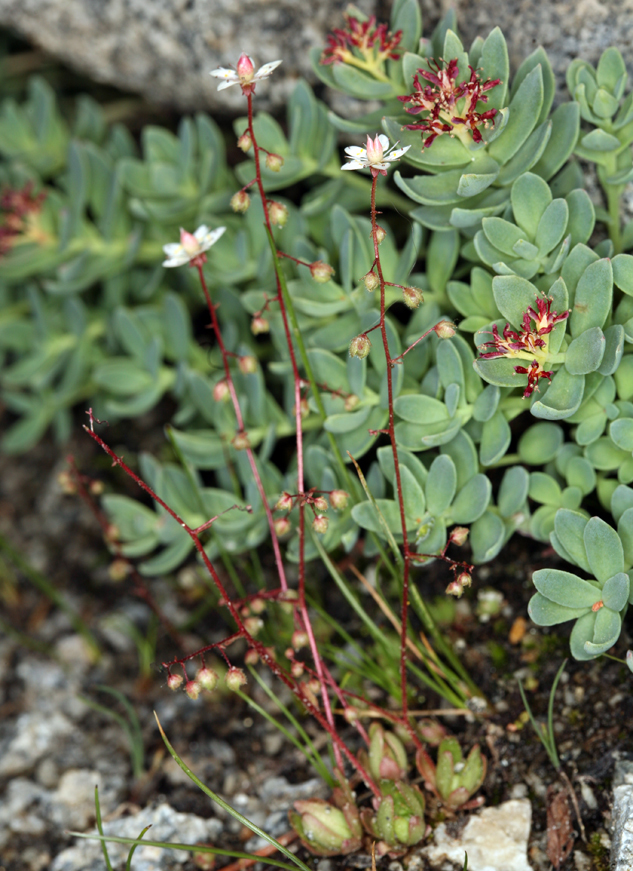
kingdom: Plantae
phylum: Tracheophyta
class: Magnoliopsida
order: Saxifragales
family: Saxifragaceae
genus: Micranthes
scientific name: Micranthes bryophora
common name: Bud saxifrage
